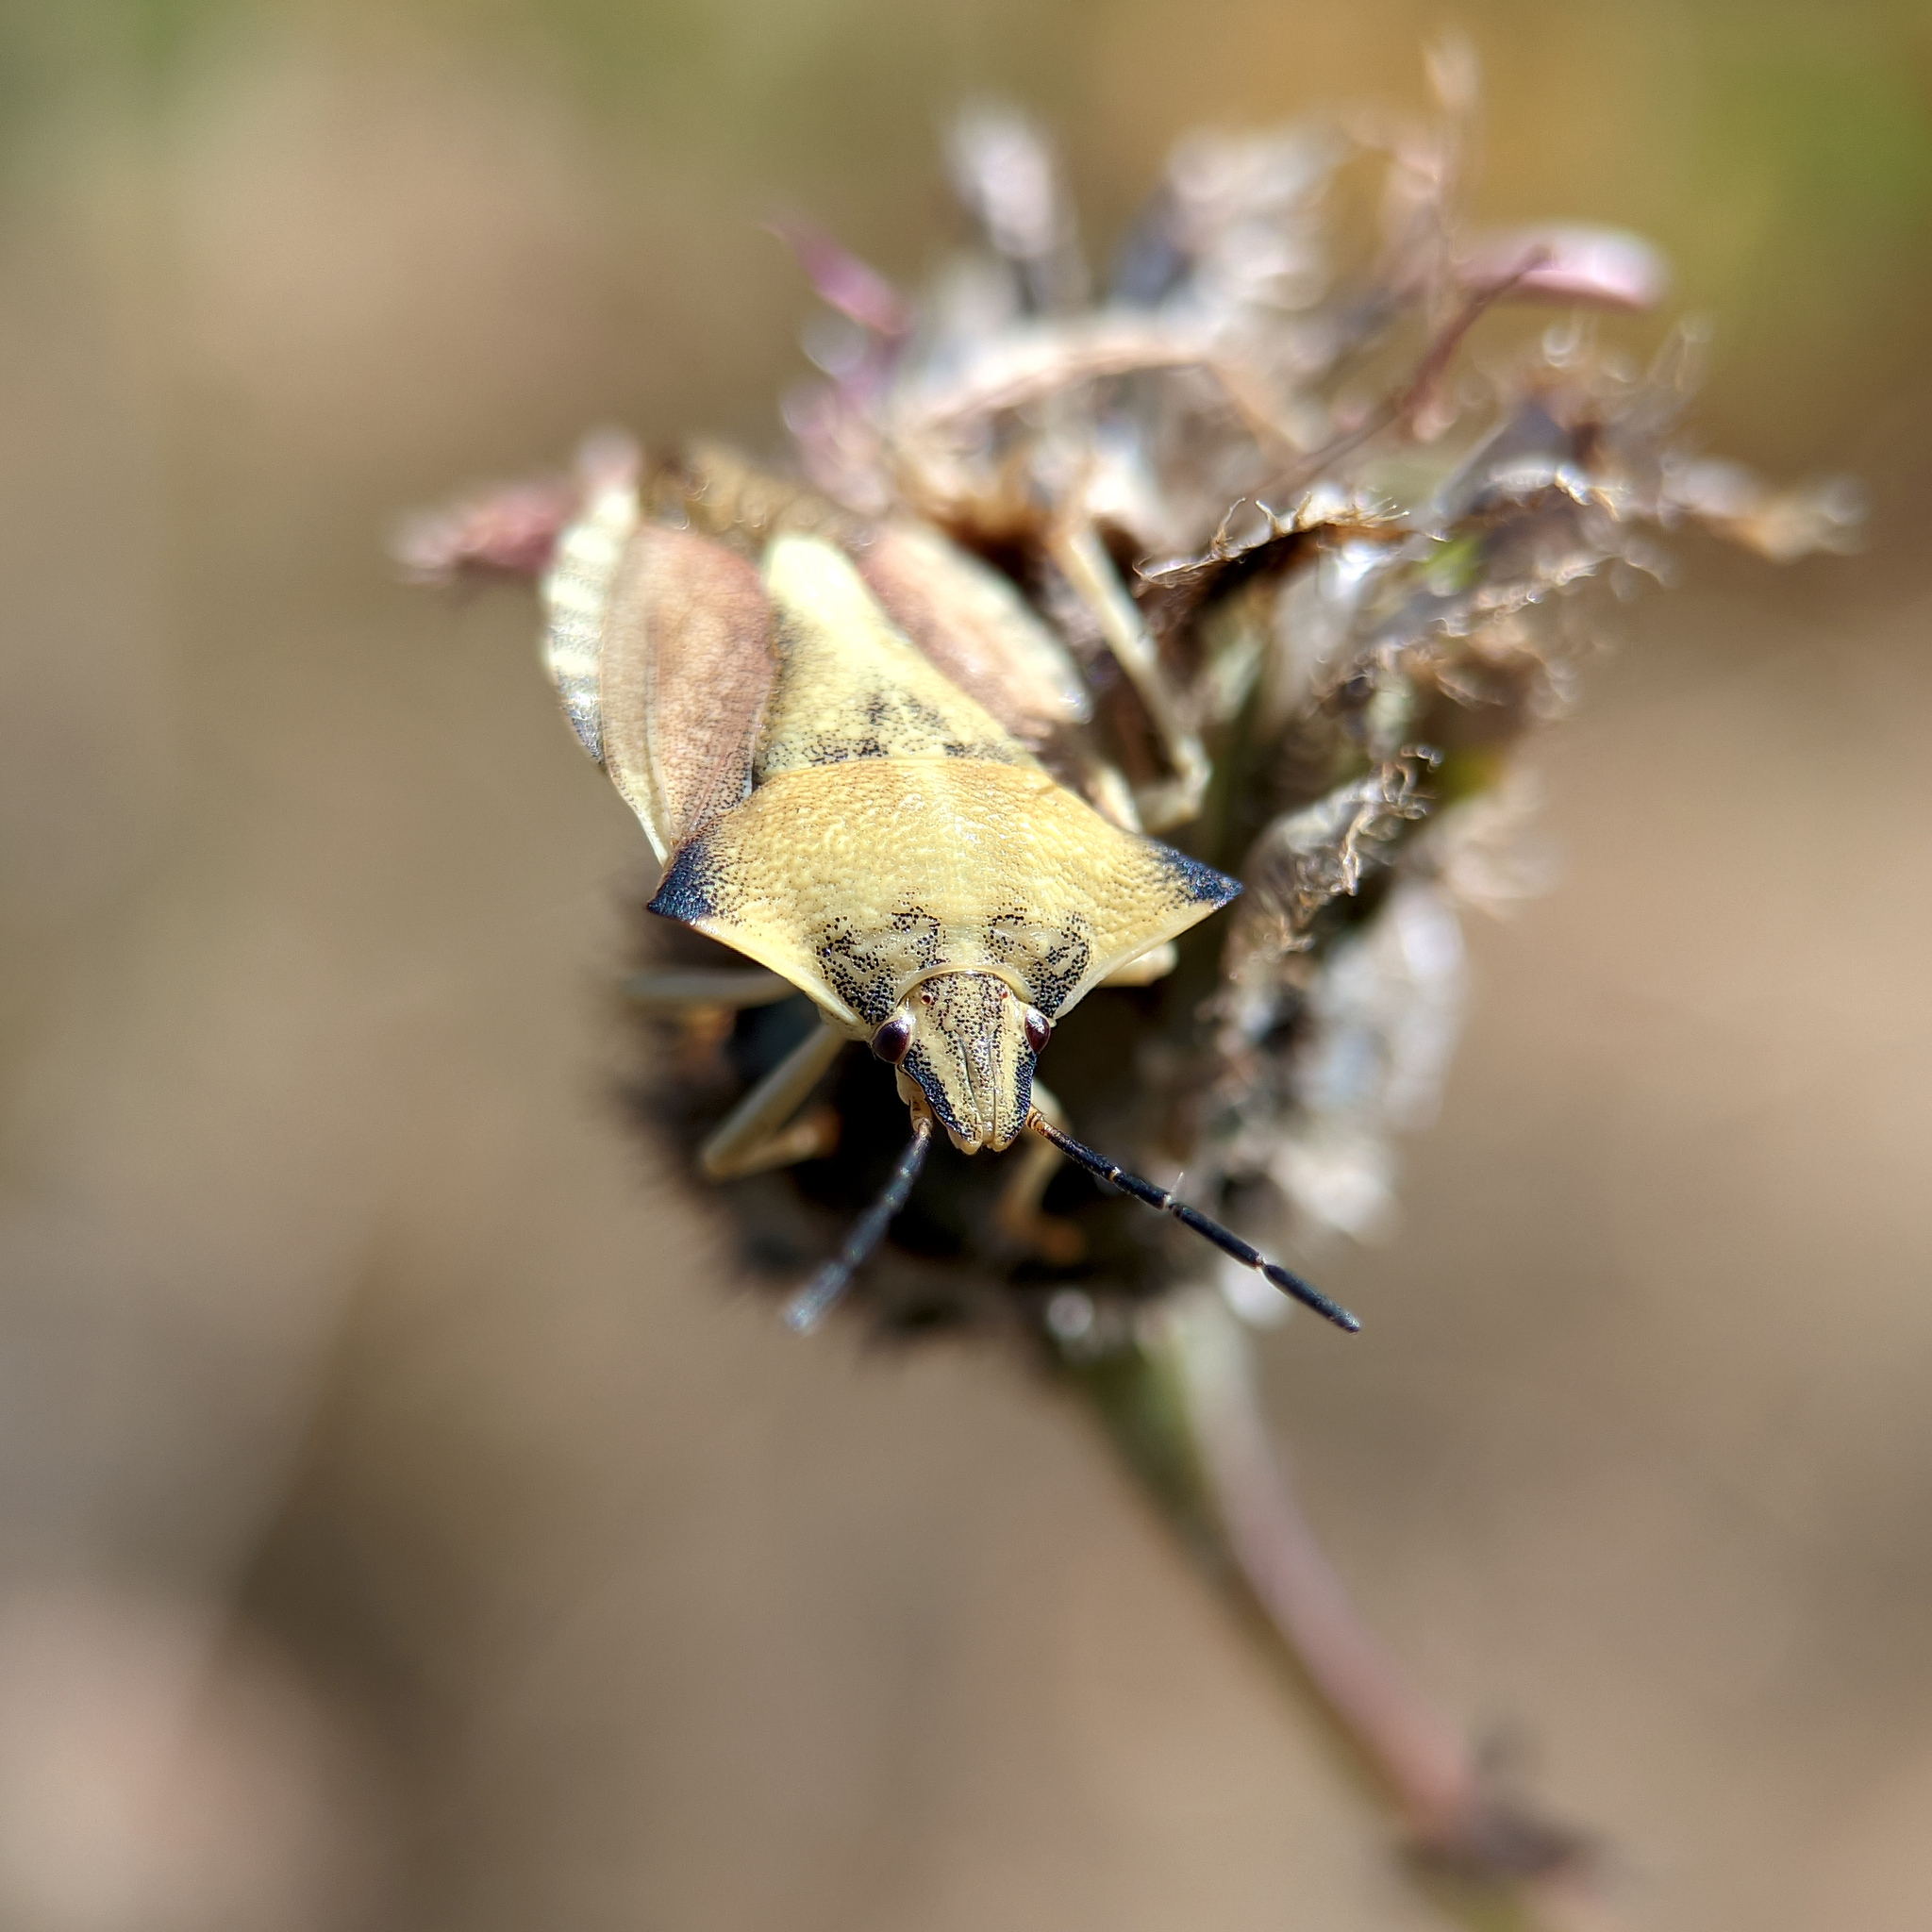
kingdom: Animalia
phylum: Arthropoda
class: Insecta
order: Hemiptera
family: Pentatomidae
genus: Carpocoris
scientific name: Carpocoris fuscispinus
